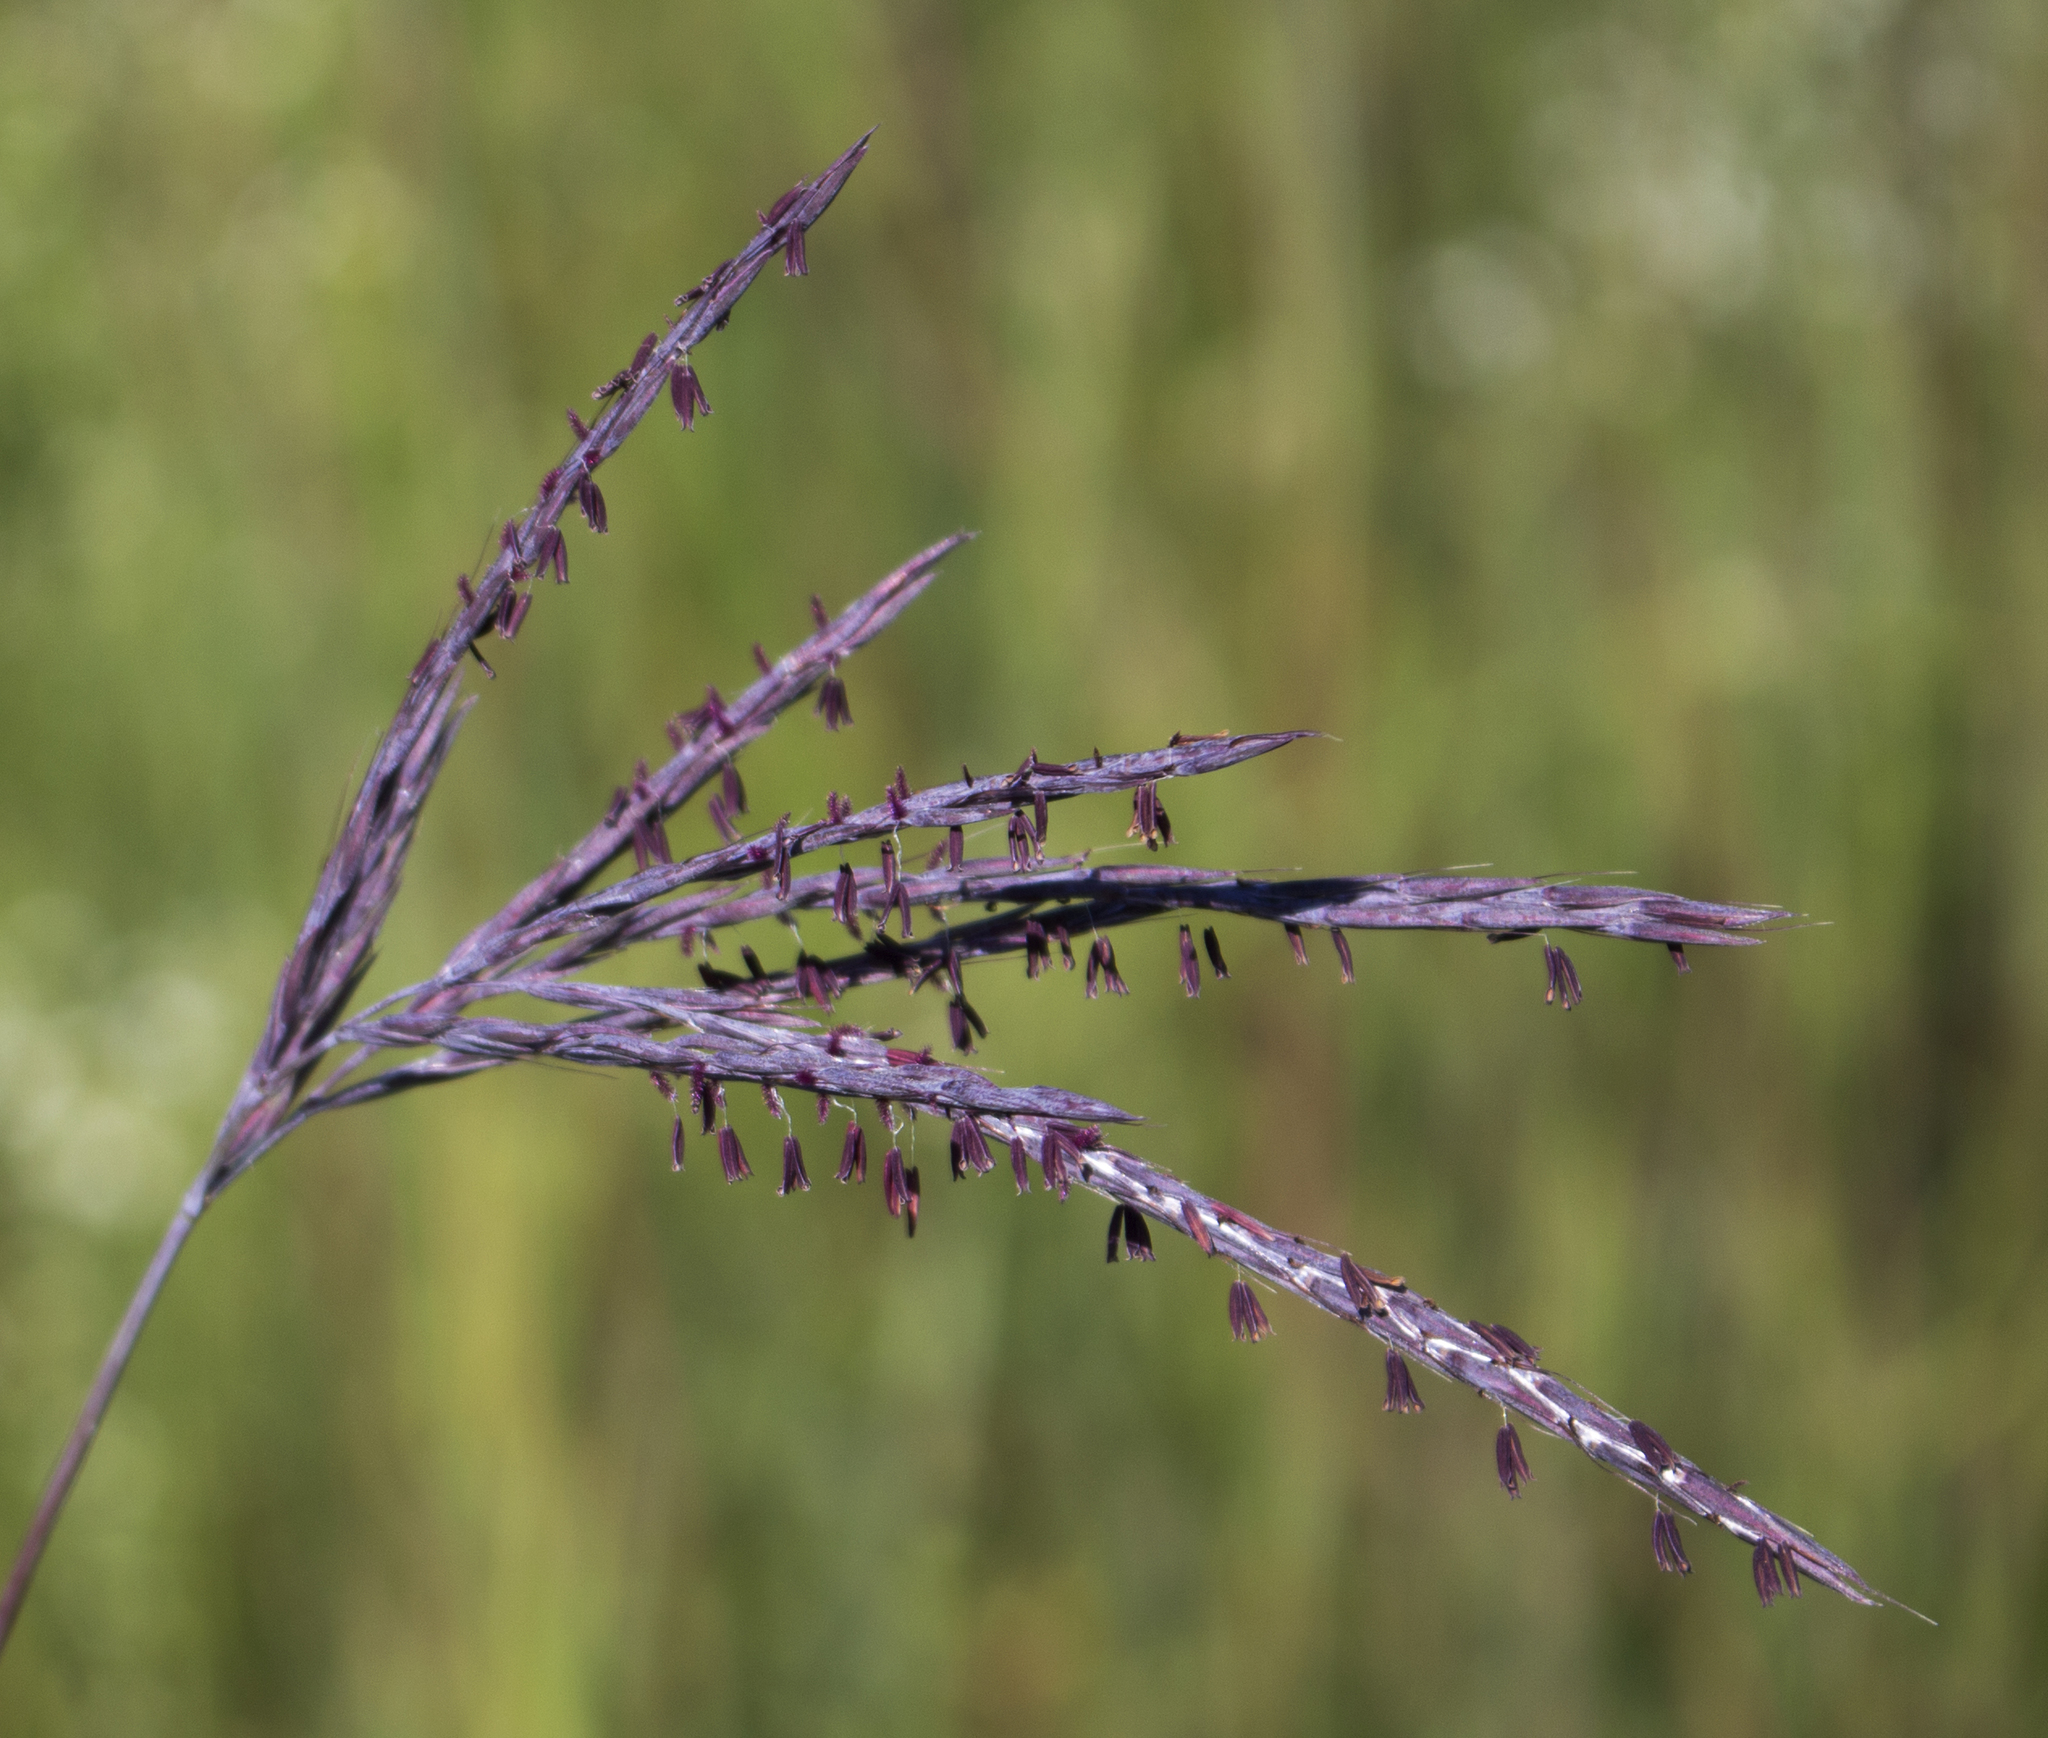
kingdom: Plantae
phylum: Tracheophyta
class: Liliopsida
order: Poales
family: Poaceae
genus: Andropogon
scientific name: Andropogon gerardi
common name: Big bluestem
